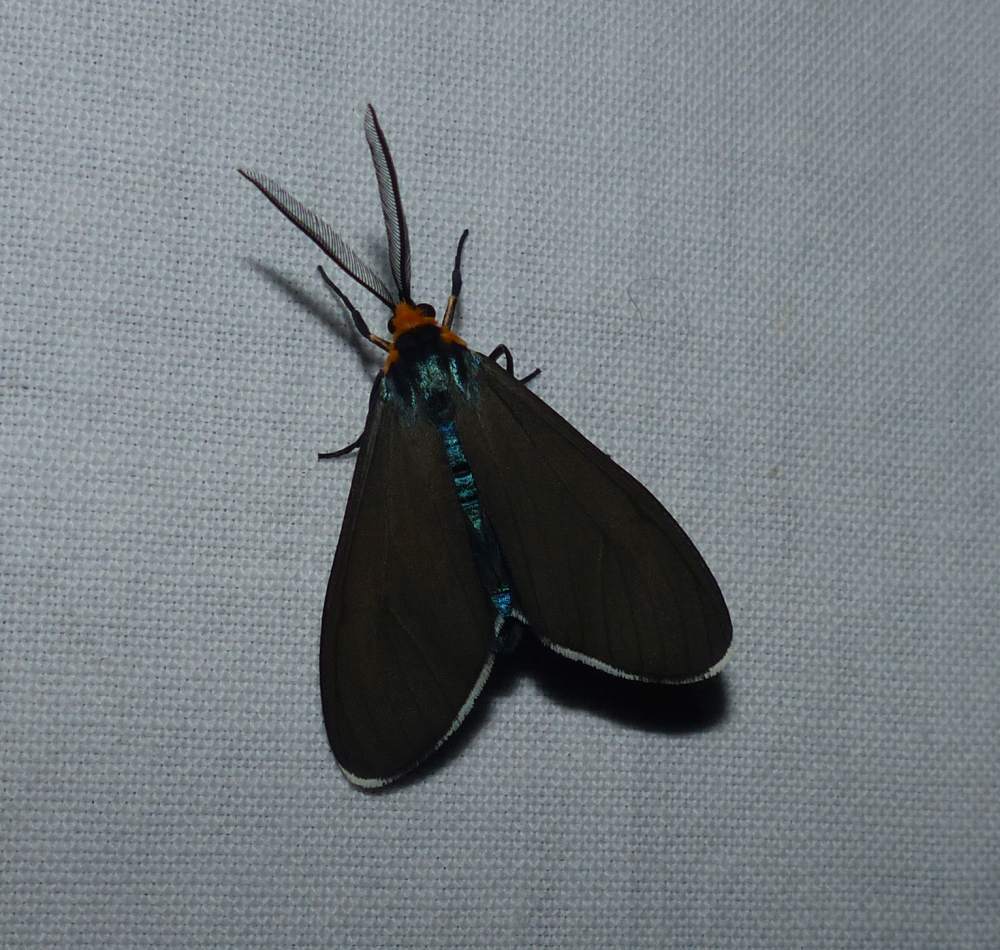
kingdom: Animalia
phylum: Arthropoda
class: Insecta
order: Lepidoptera
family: Erebidae
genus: Ctenucha
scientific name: Ctenucha virginica
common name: Virginia ctenucha moth
